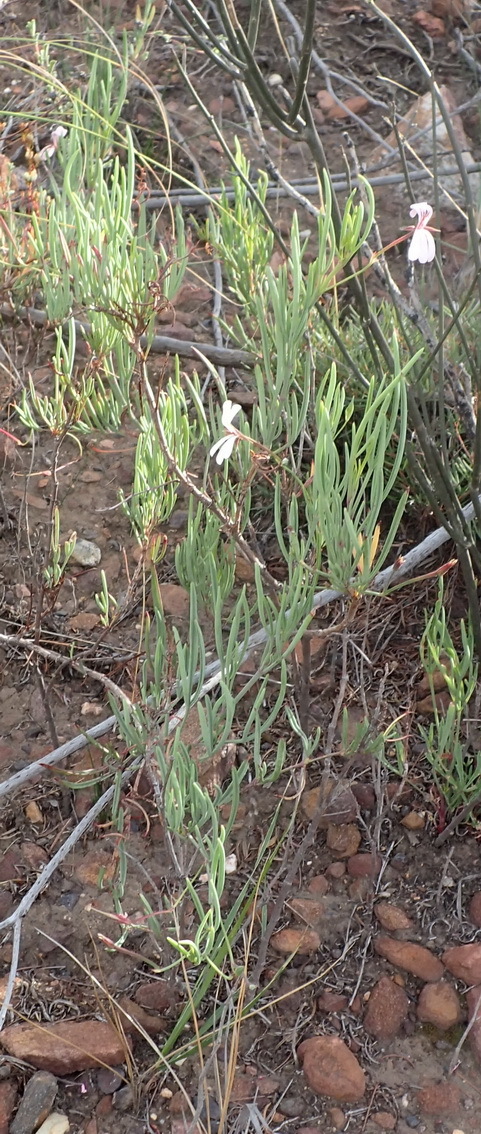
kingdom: Plantae
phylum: Tracheophyta
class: Magnoliopsida
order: Geraniales
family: Geraniaceae
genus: Pelargonium
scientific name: Pelargonium laevigatum
